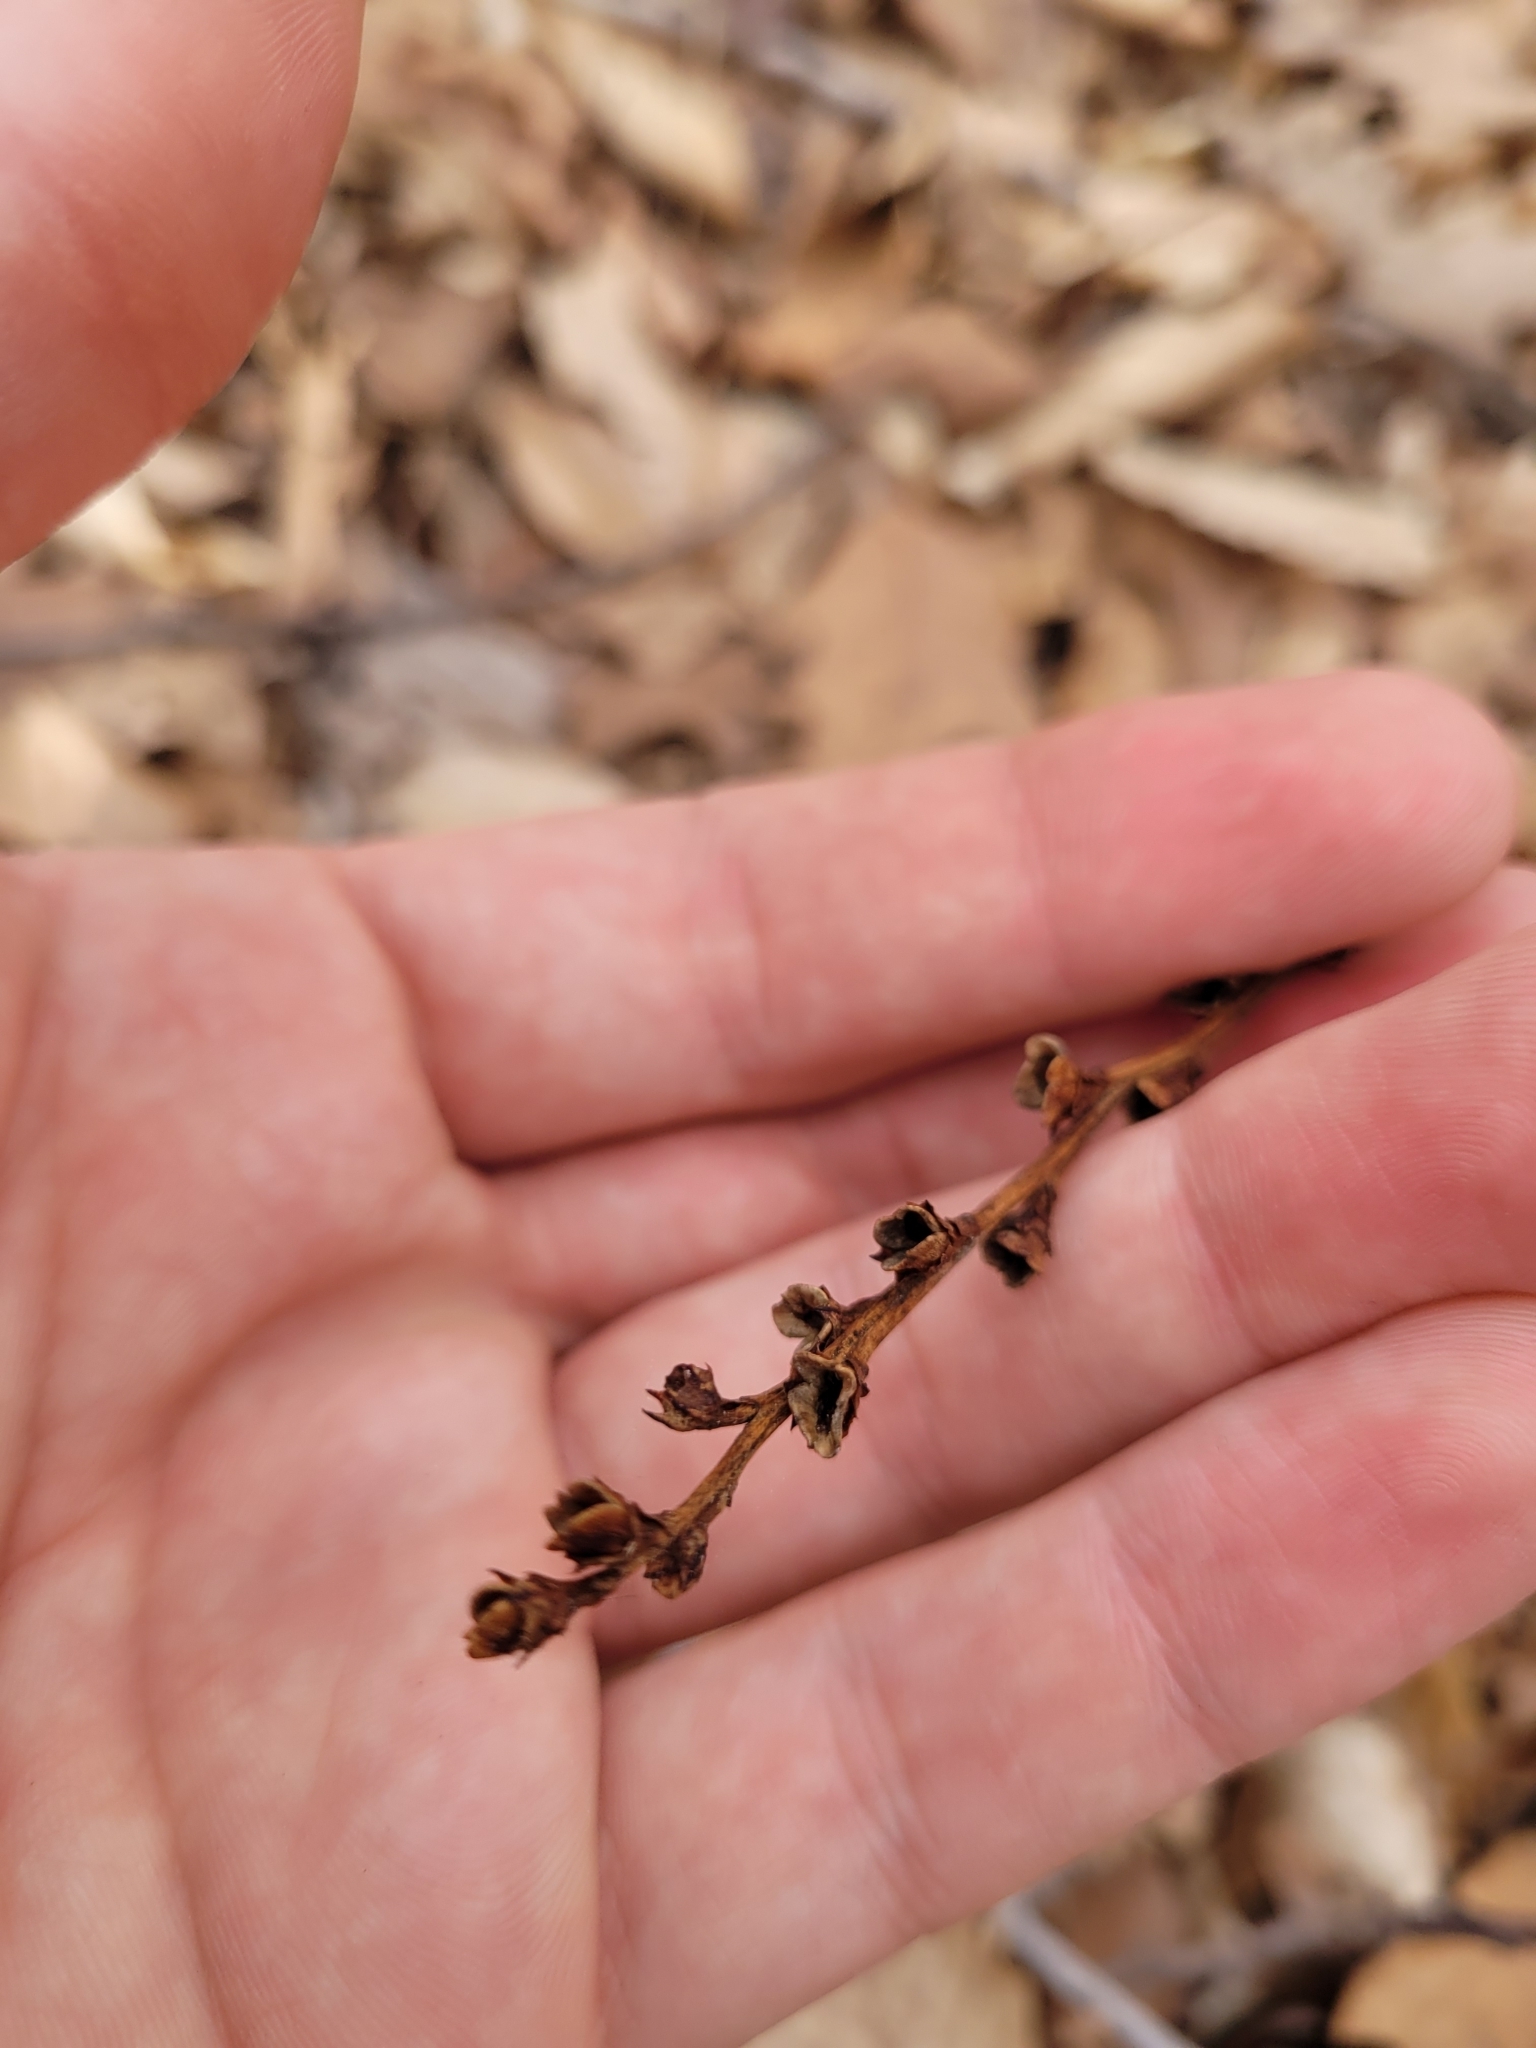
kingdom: Plantae
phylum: Tracheophyta
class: Magnoliopsida
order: Lamiales
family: Orobanchaceae
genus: Epifagus
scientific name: Epifagus virginiana
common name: Beechdrops
